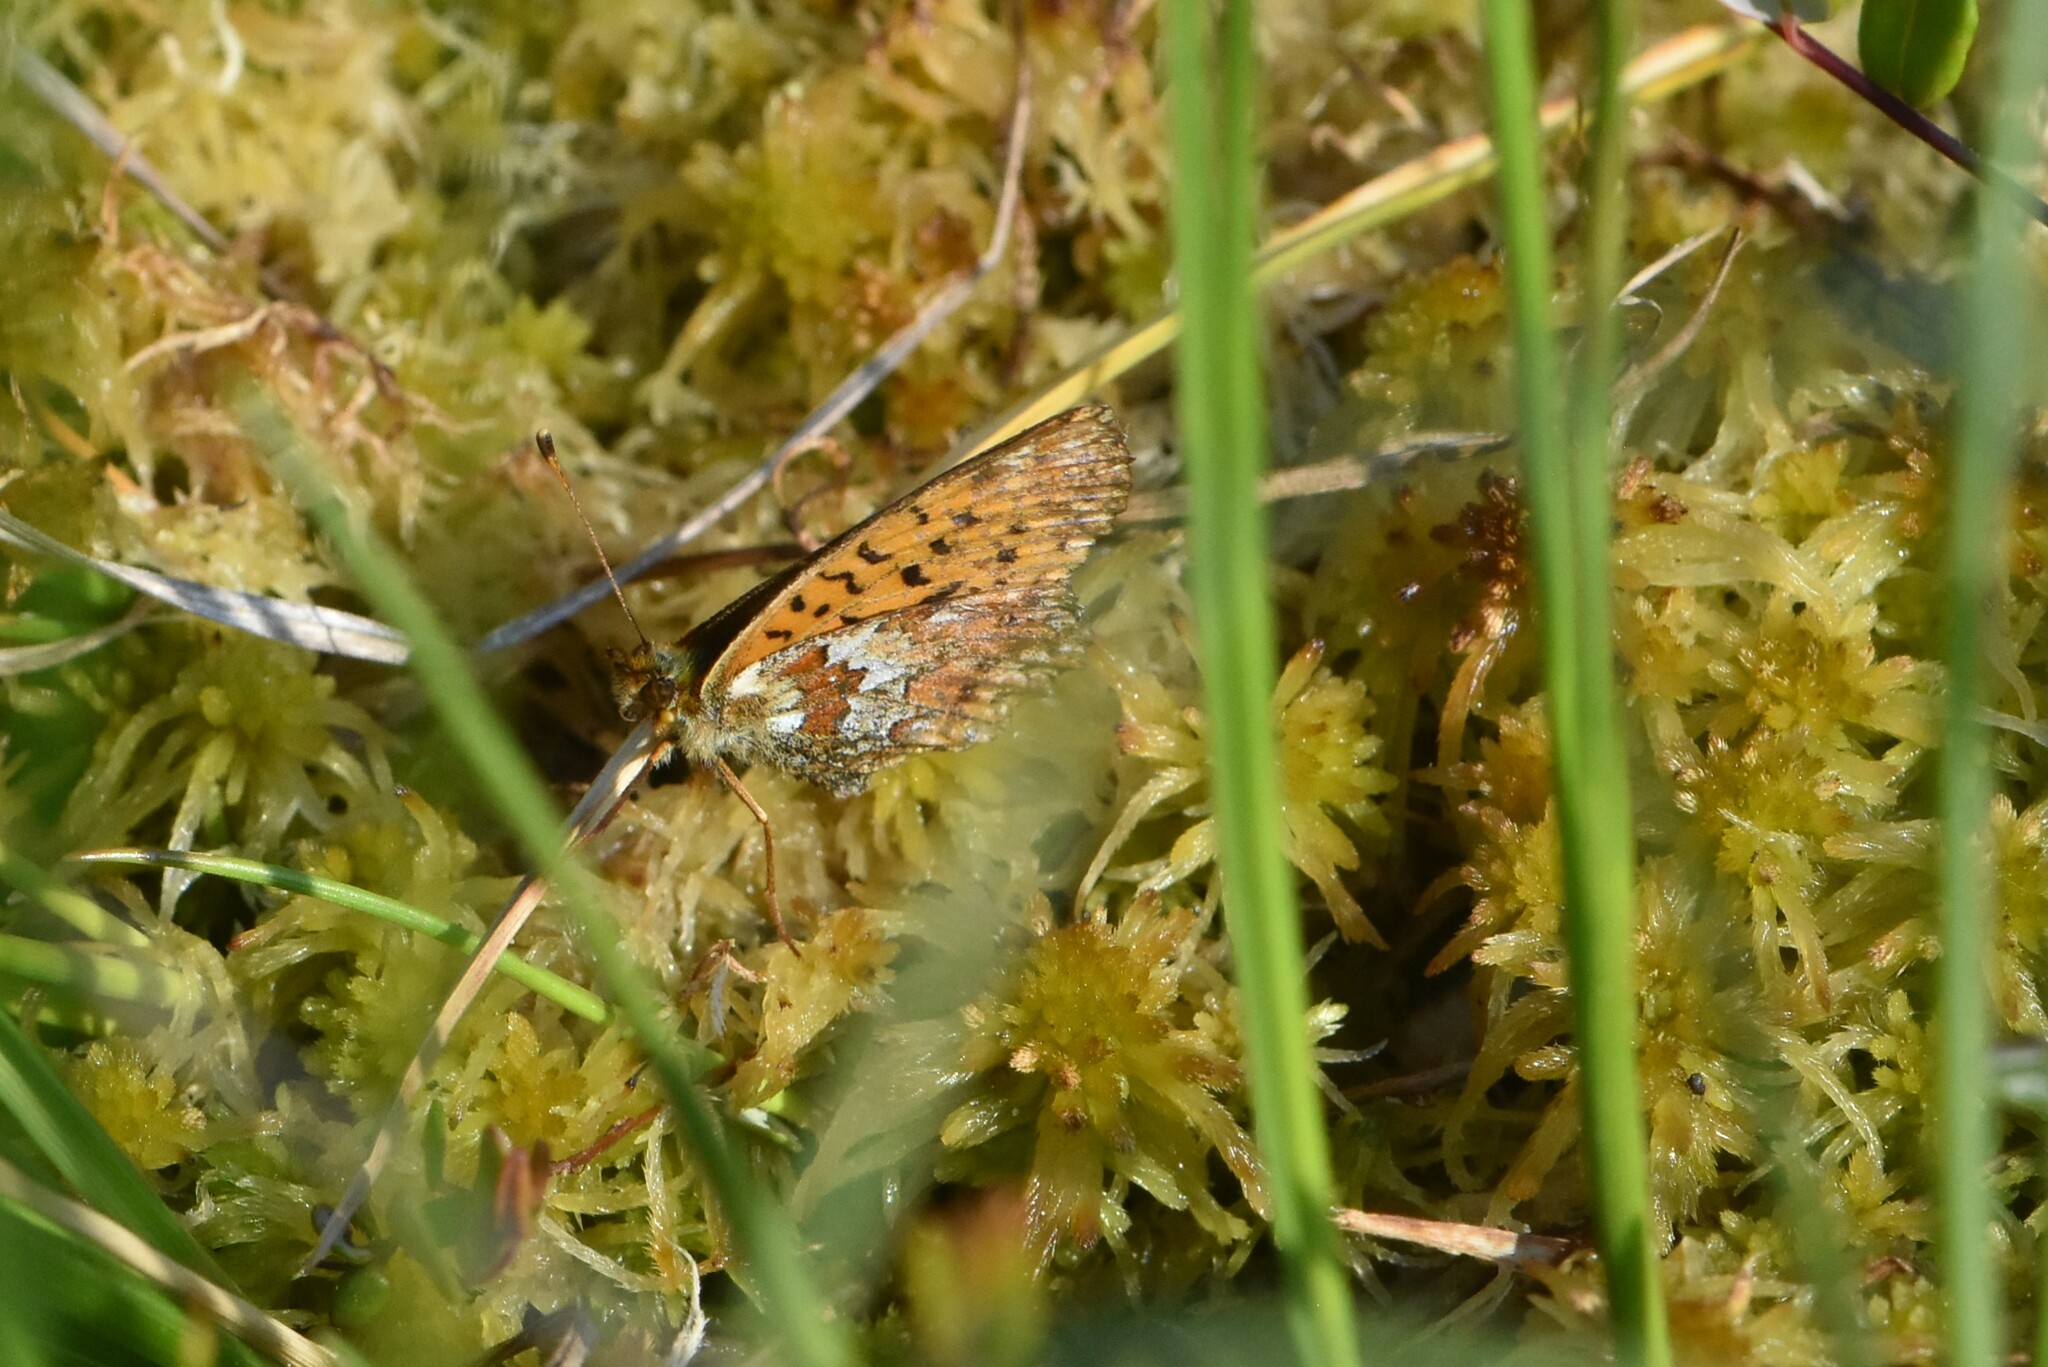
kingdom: Animalia
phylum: Arthropoda
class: Insecta
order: Lepidoptera
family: Nymphalidae
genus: Boloria
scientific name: Boloria aquilonaris
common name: Cranberry fritillary
